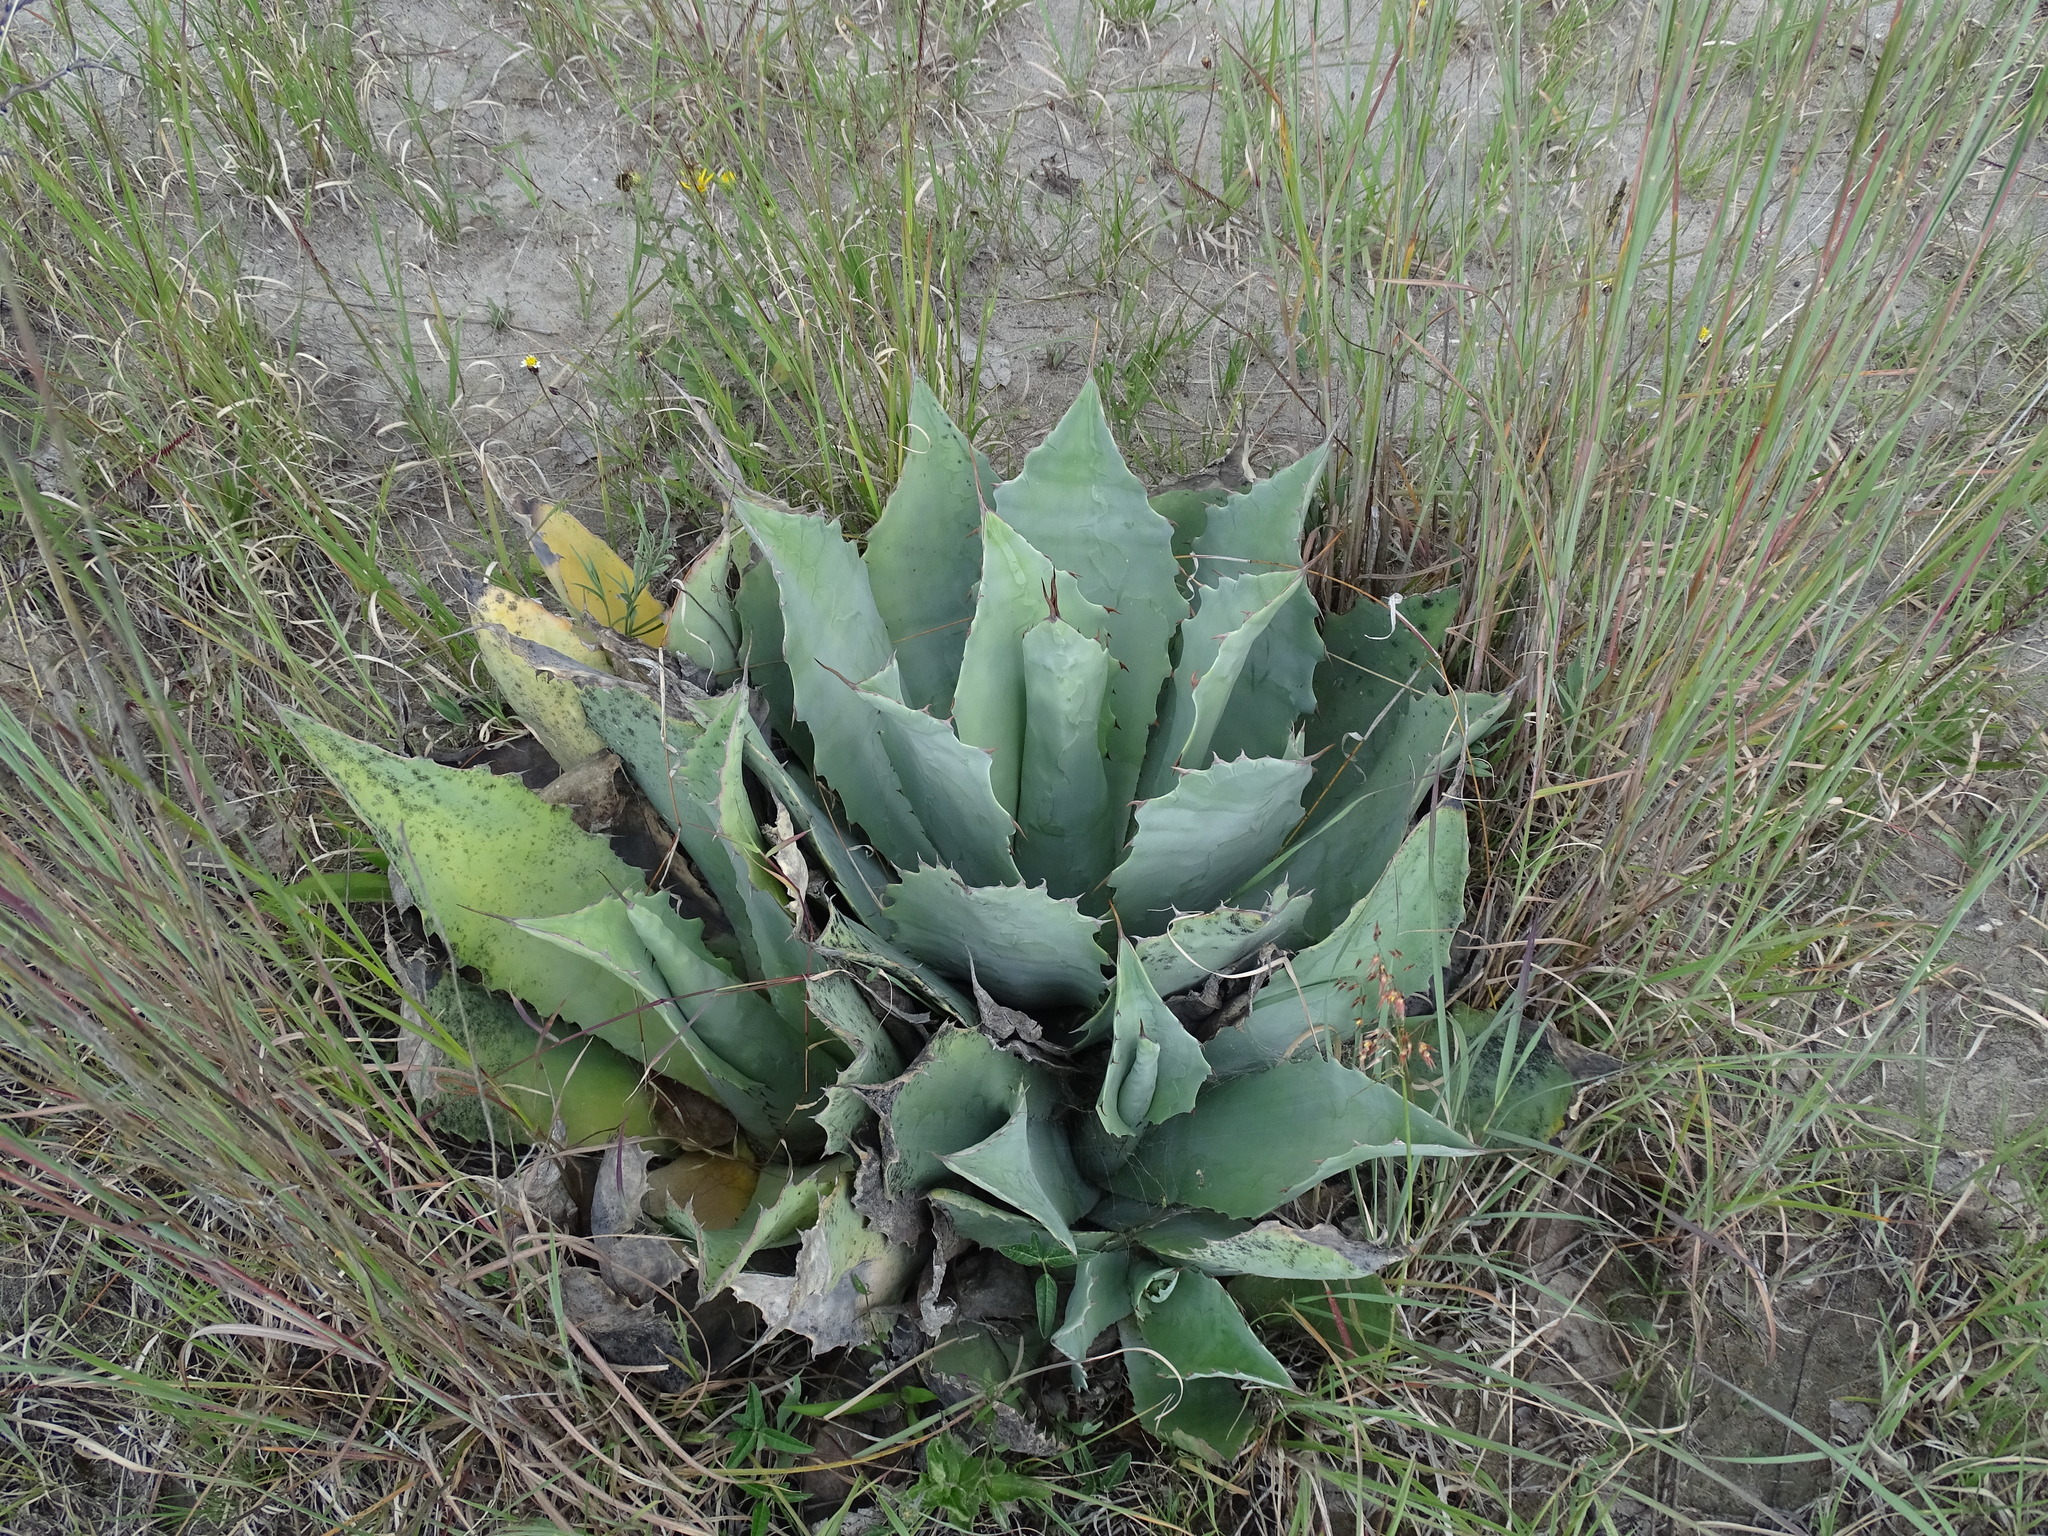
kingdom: Plantae
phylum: Tracheophyta
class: Liliopsida
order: Asparagales
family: Asparagaceae
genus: Agave
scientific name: Agave potatorum
